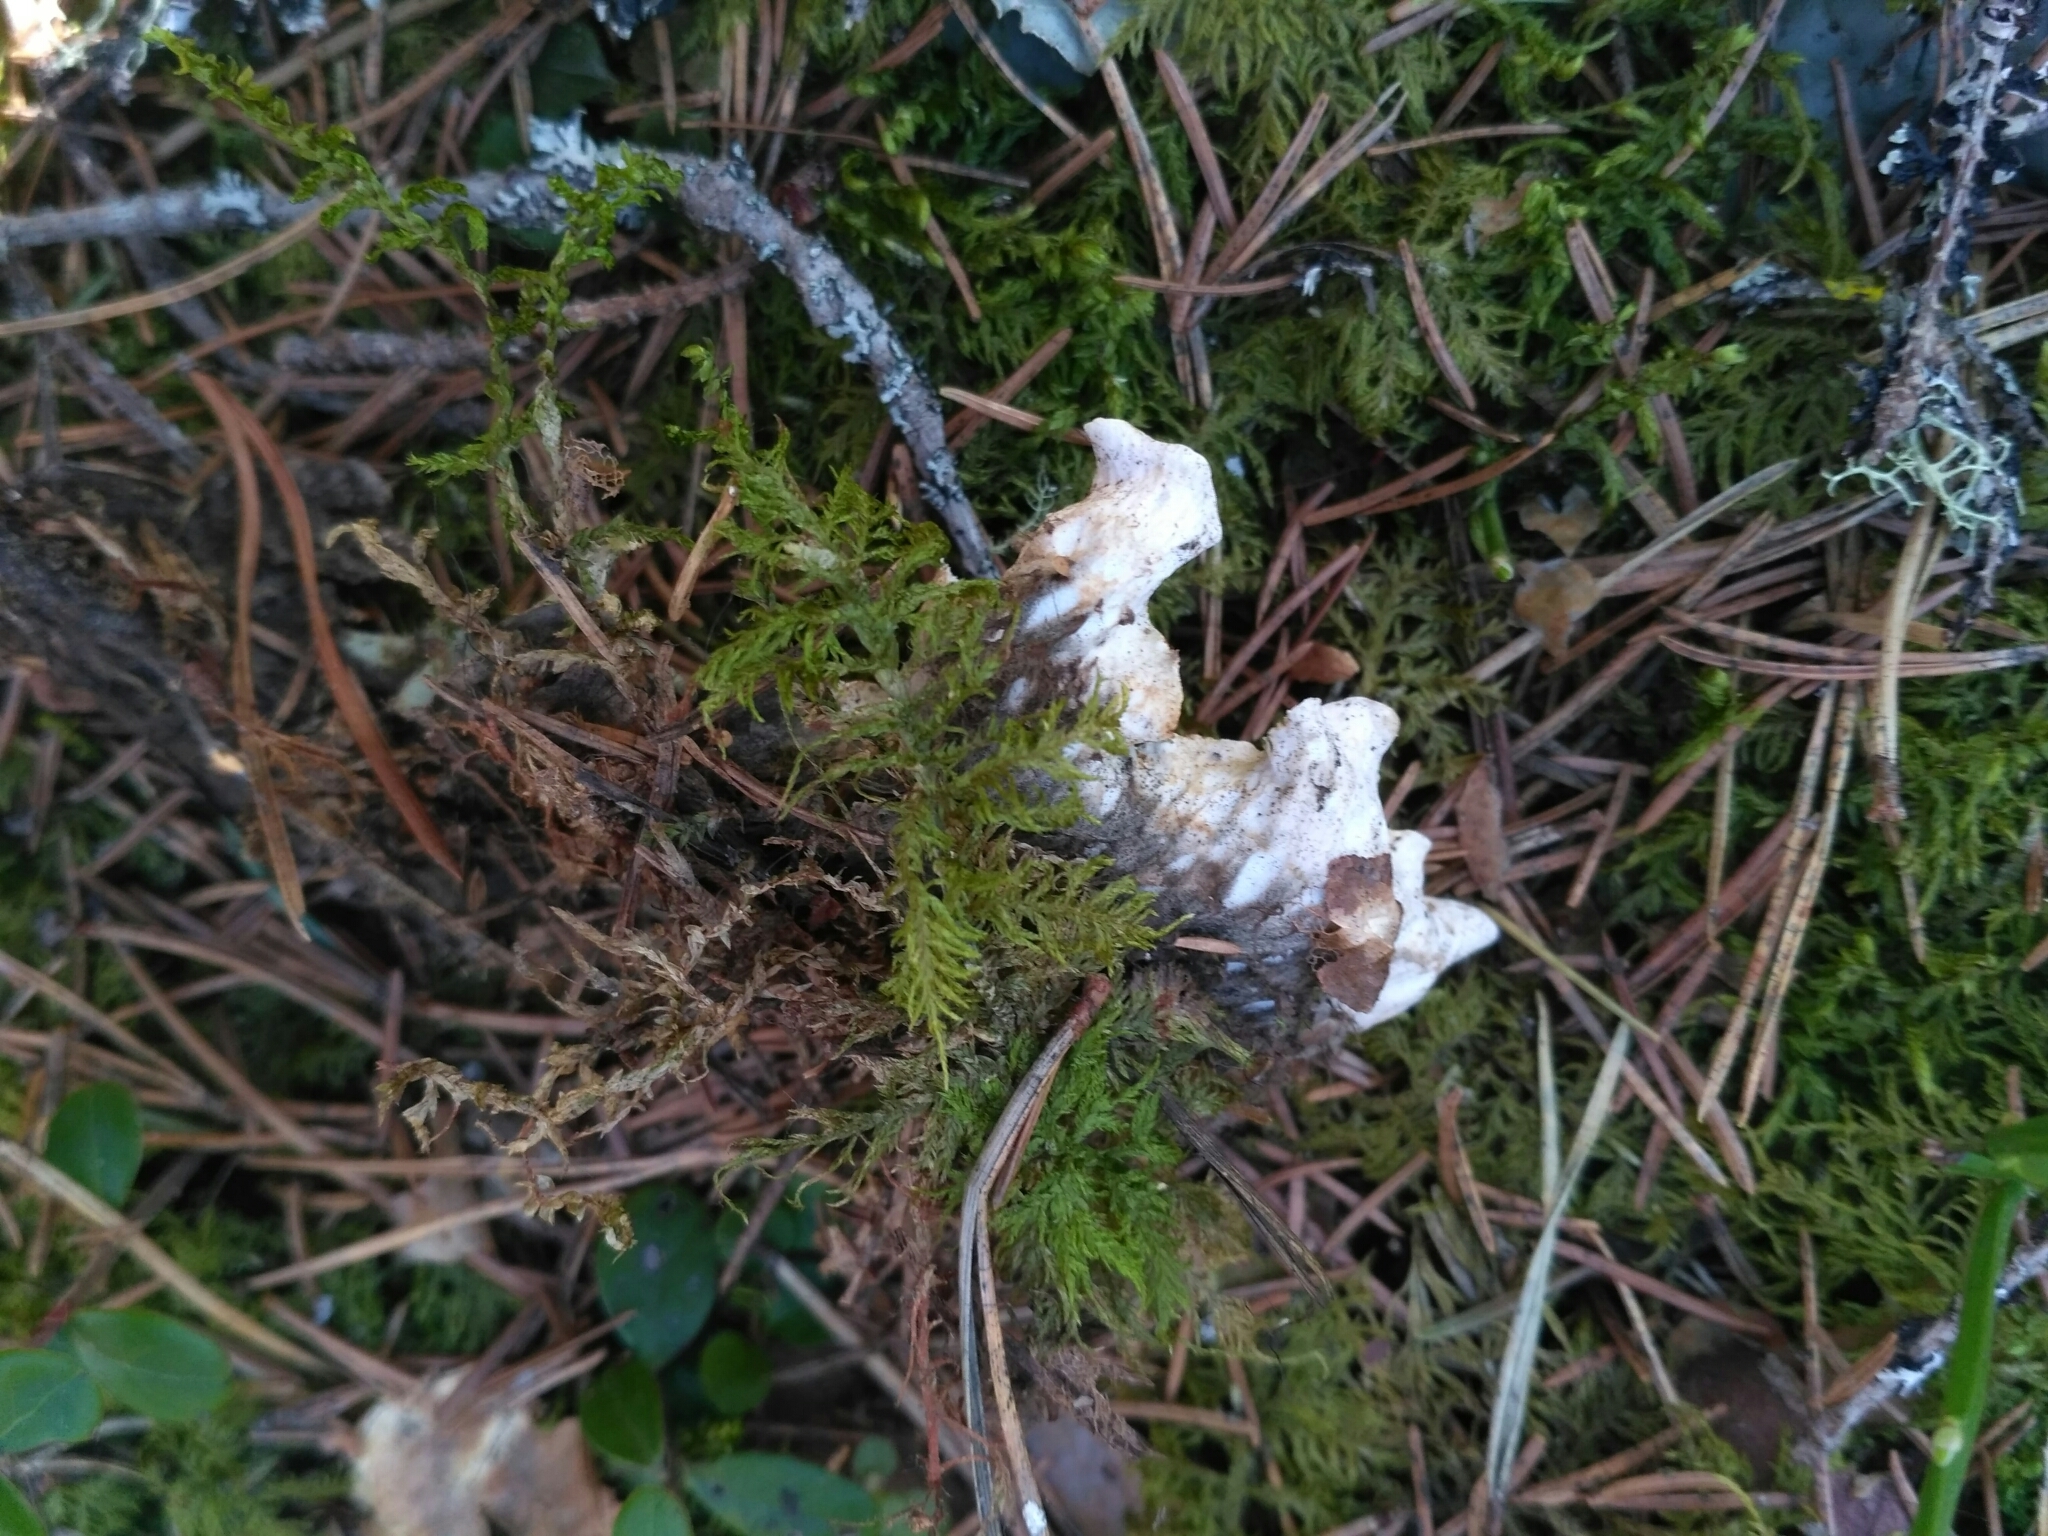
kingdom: Fungi
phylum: Ascomycota
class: Lecanoromycetes
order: Peltigerales
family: Peltigeraceae
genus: Peltigera
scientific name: Peltigera aphthosa
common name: Common freckle pelt lichen
